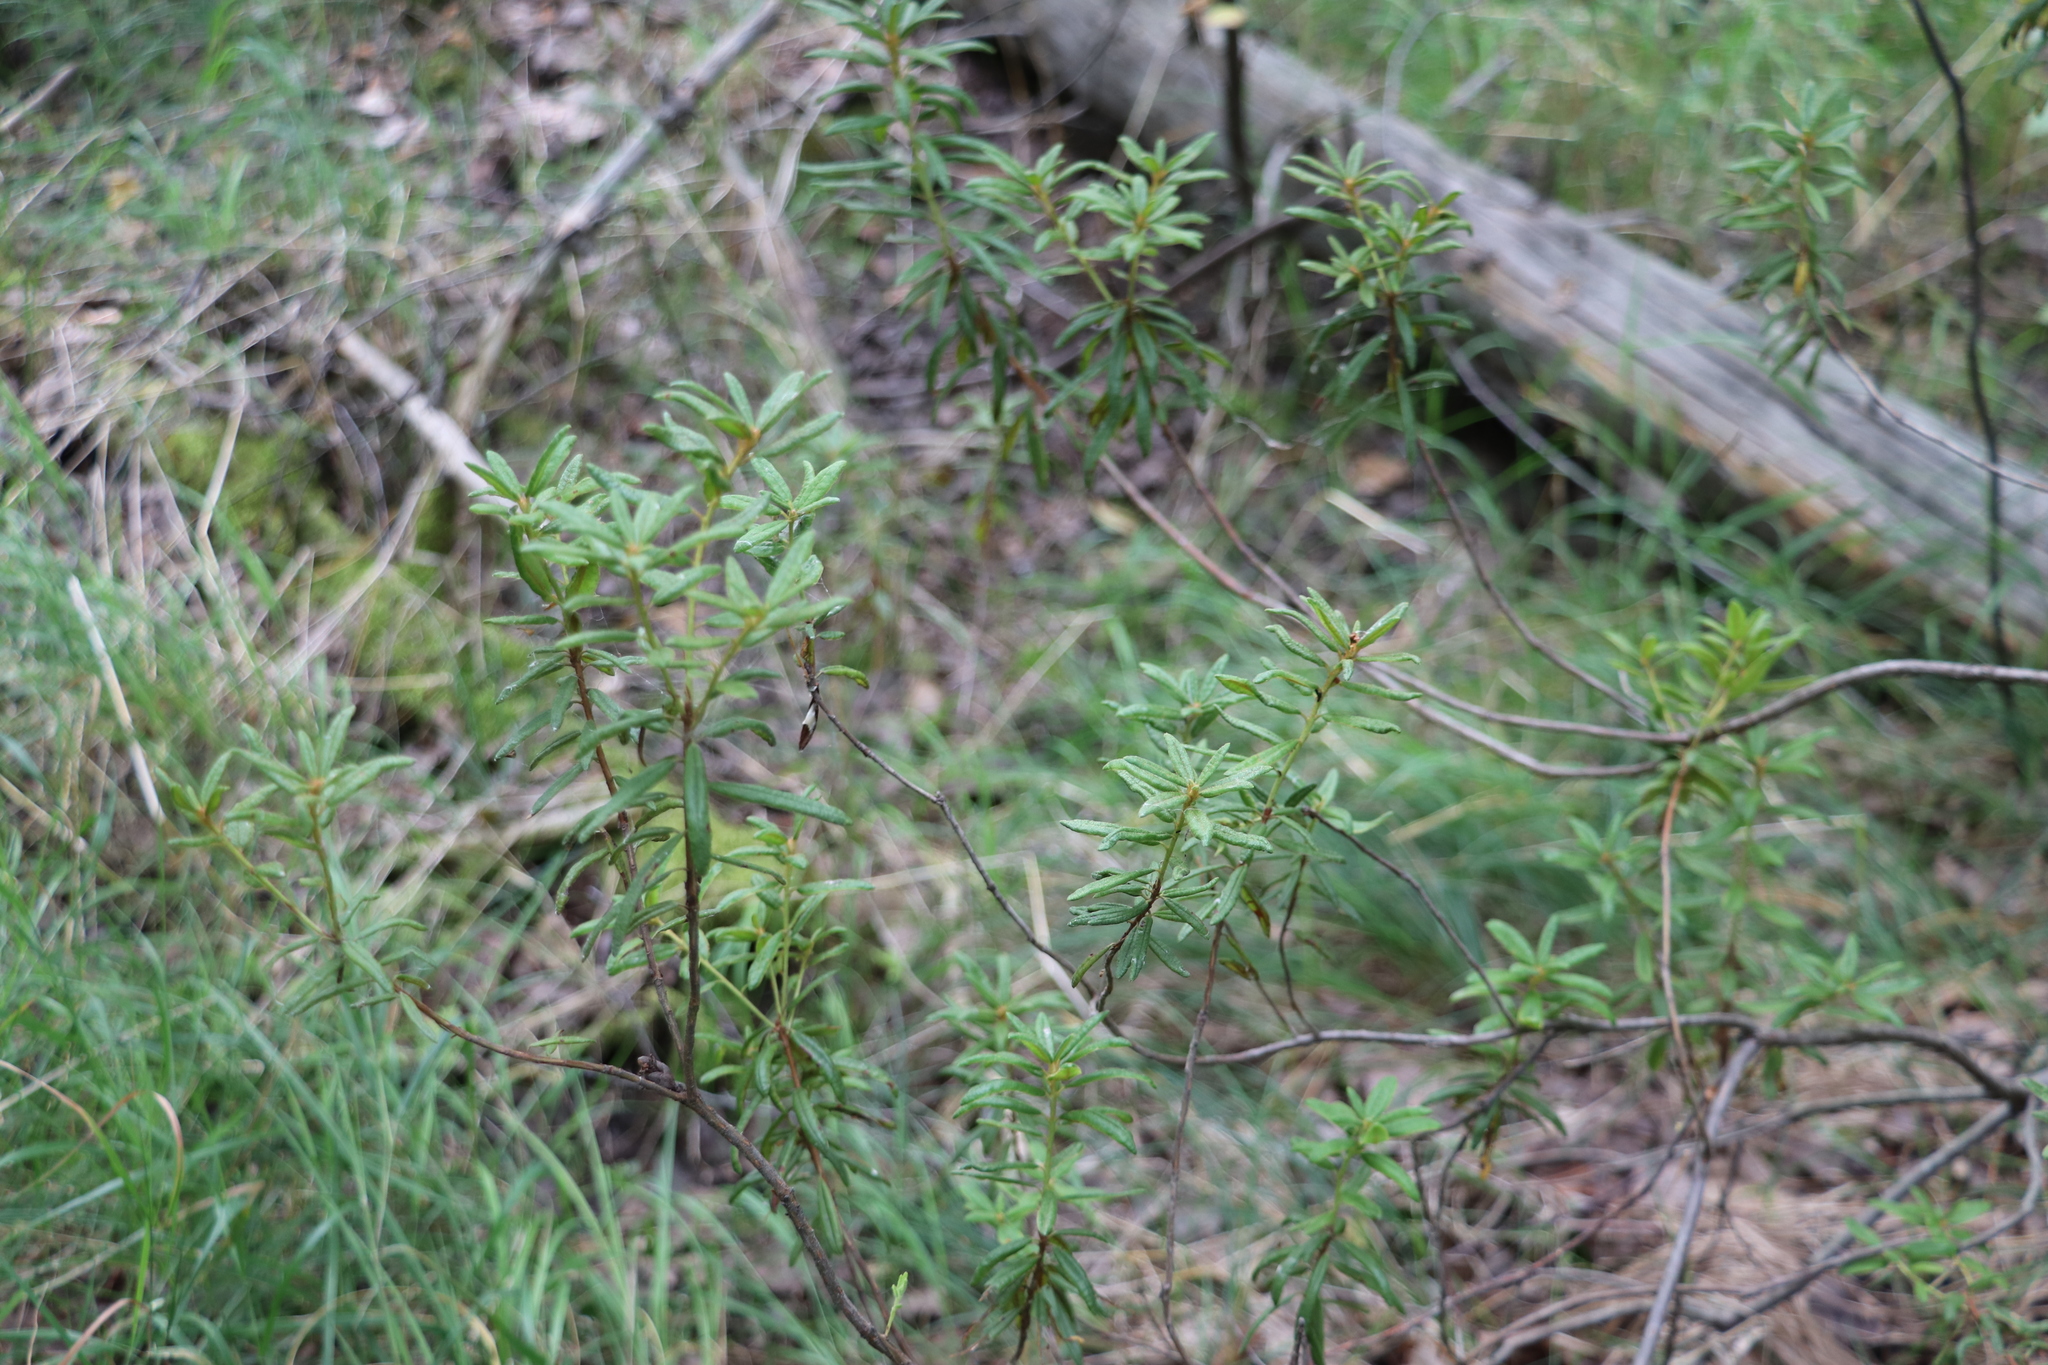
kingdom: Plantae
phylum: Tracheophyta
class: Magnoliopsida
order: Ericales
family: Ericaceae
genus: Rhododendron
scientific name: Rhododendron tomentosum
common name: Marsh labrador tea
